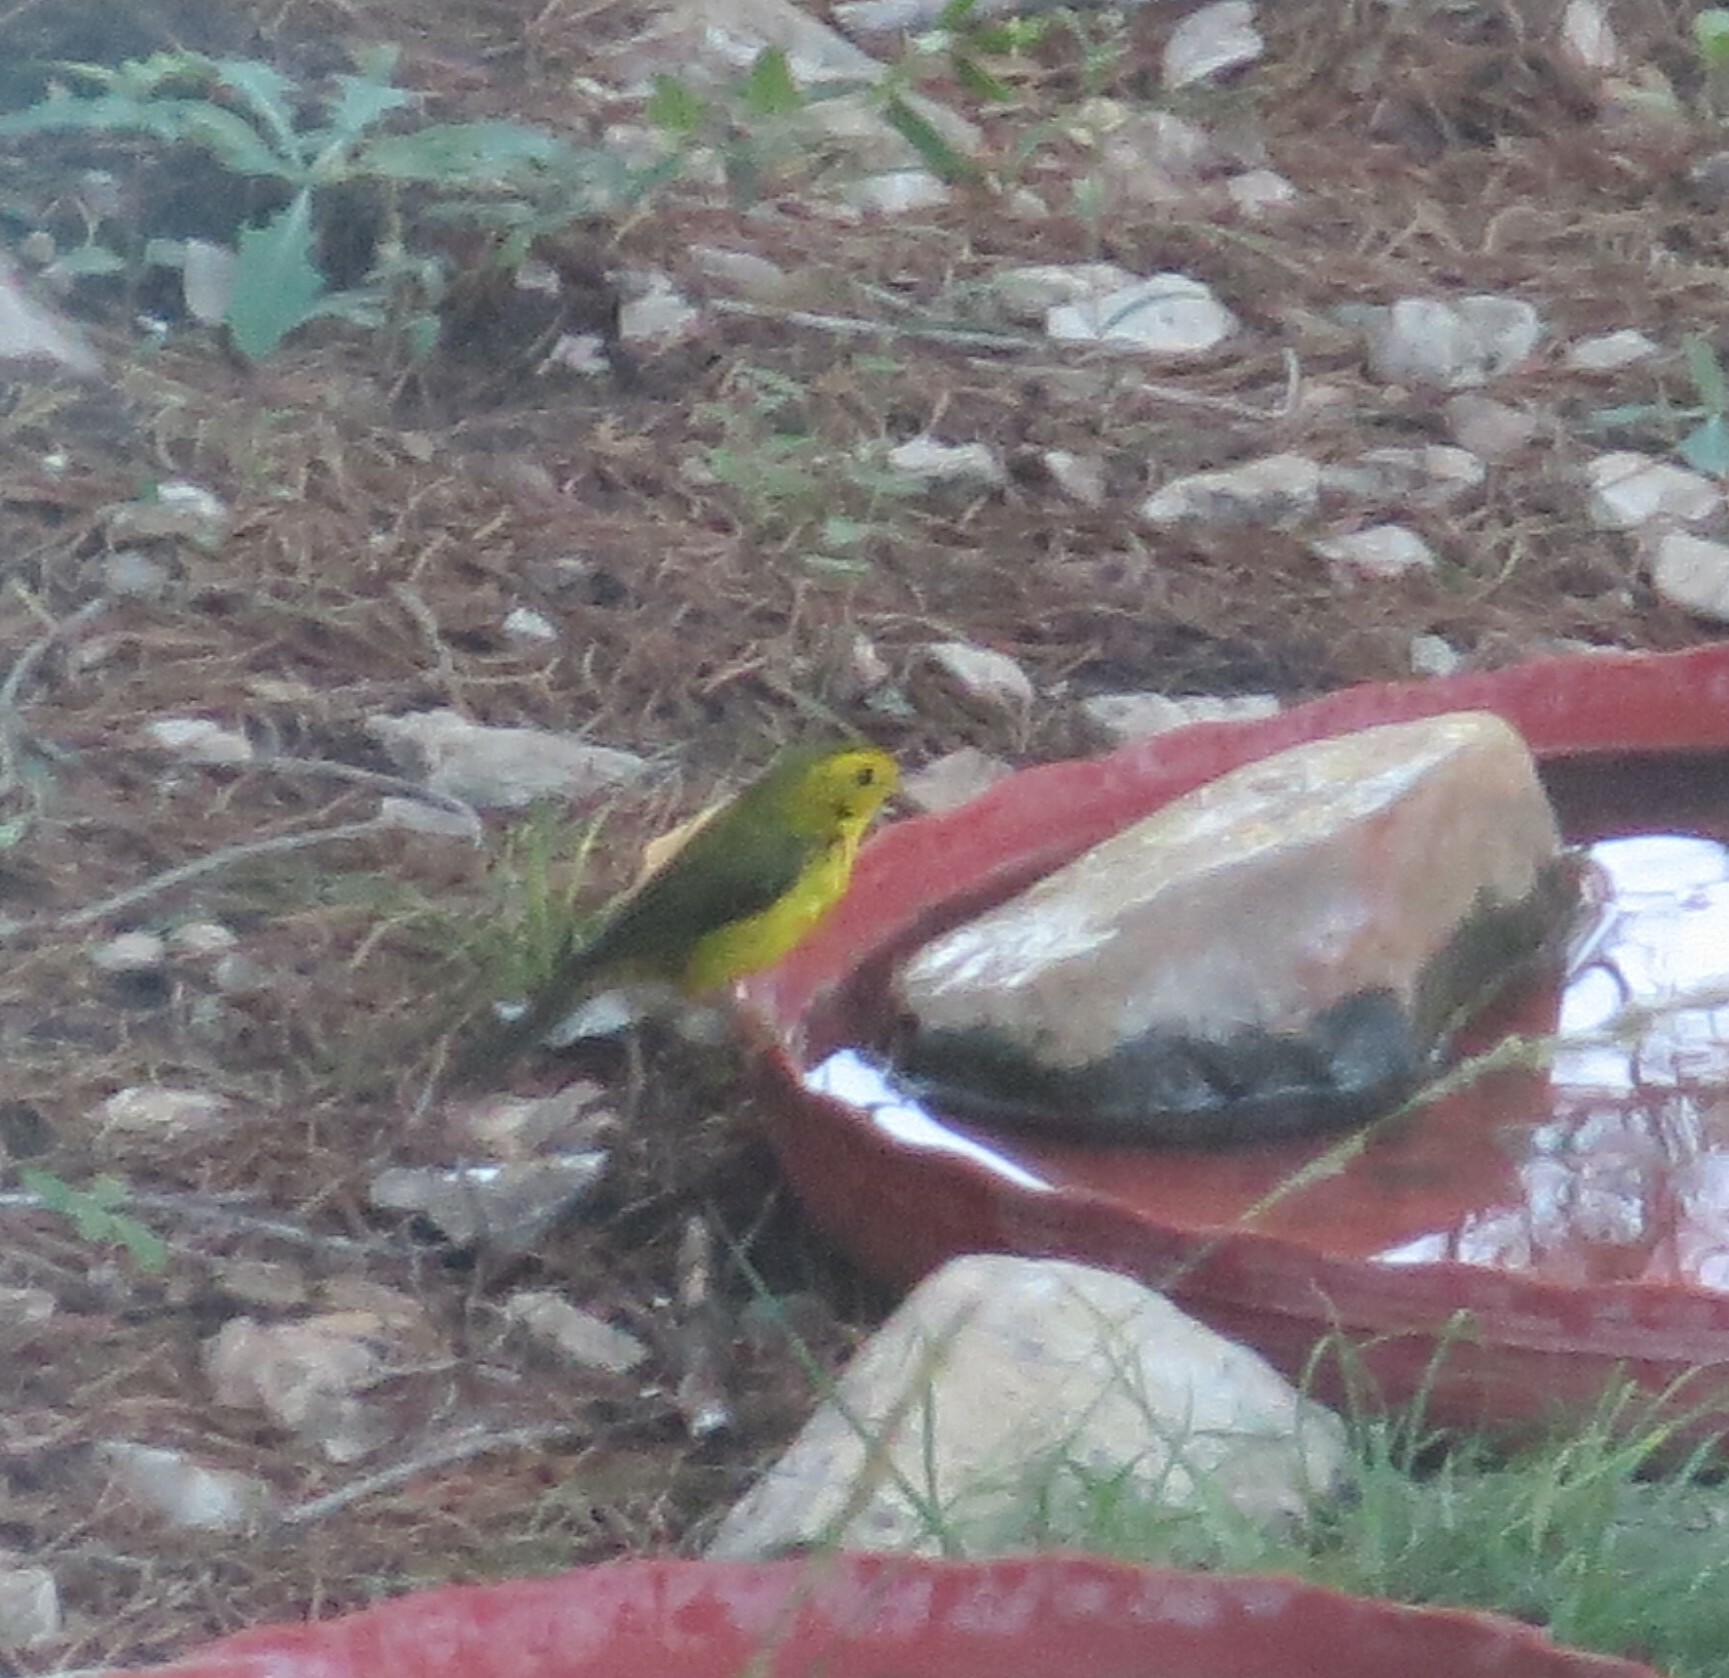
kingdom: Animalia
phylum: Chordata
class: Aves
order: Passeriformes
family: Parulidae
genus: Cardellina
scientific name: Cardellina pusilla
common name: Wilson's warbler
